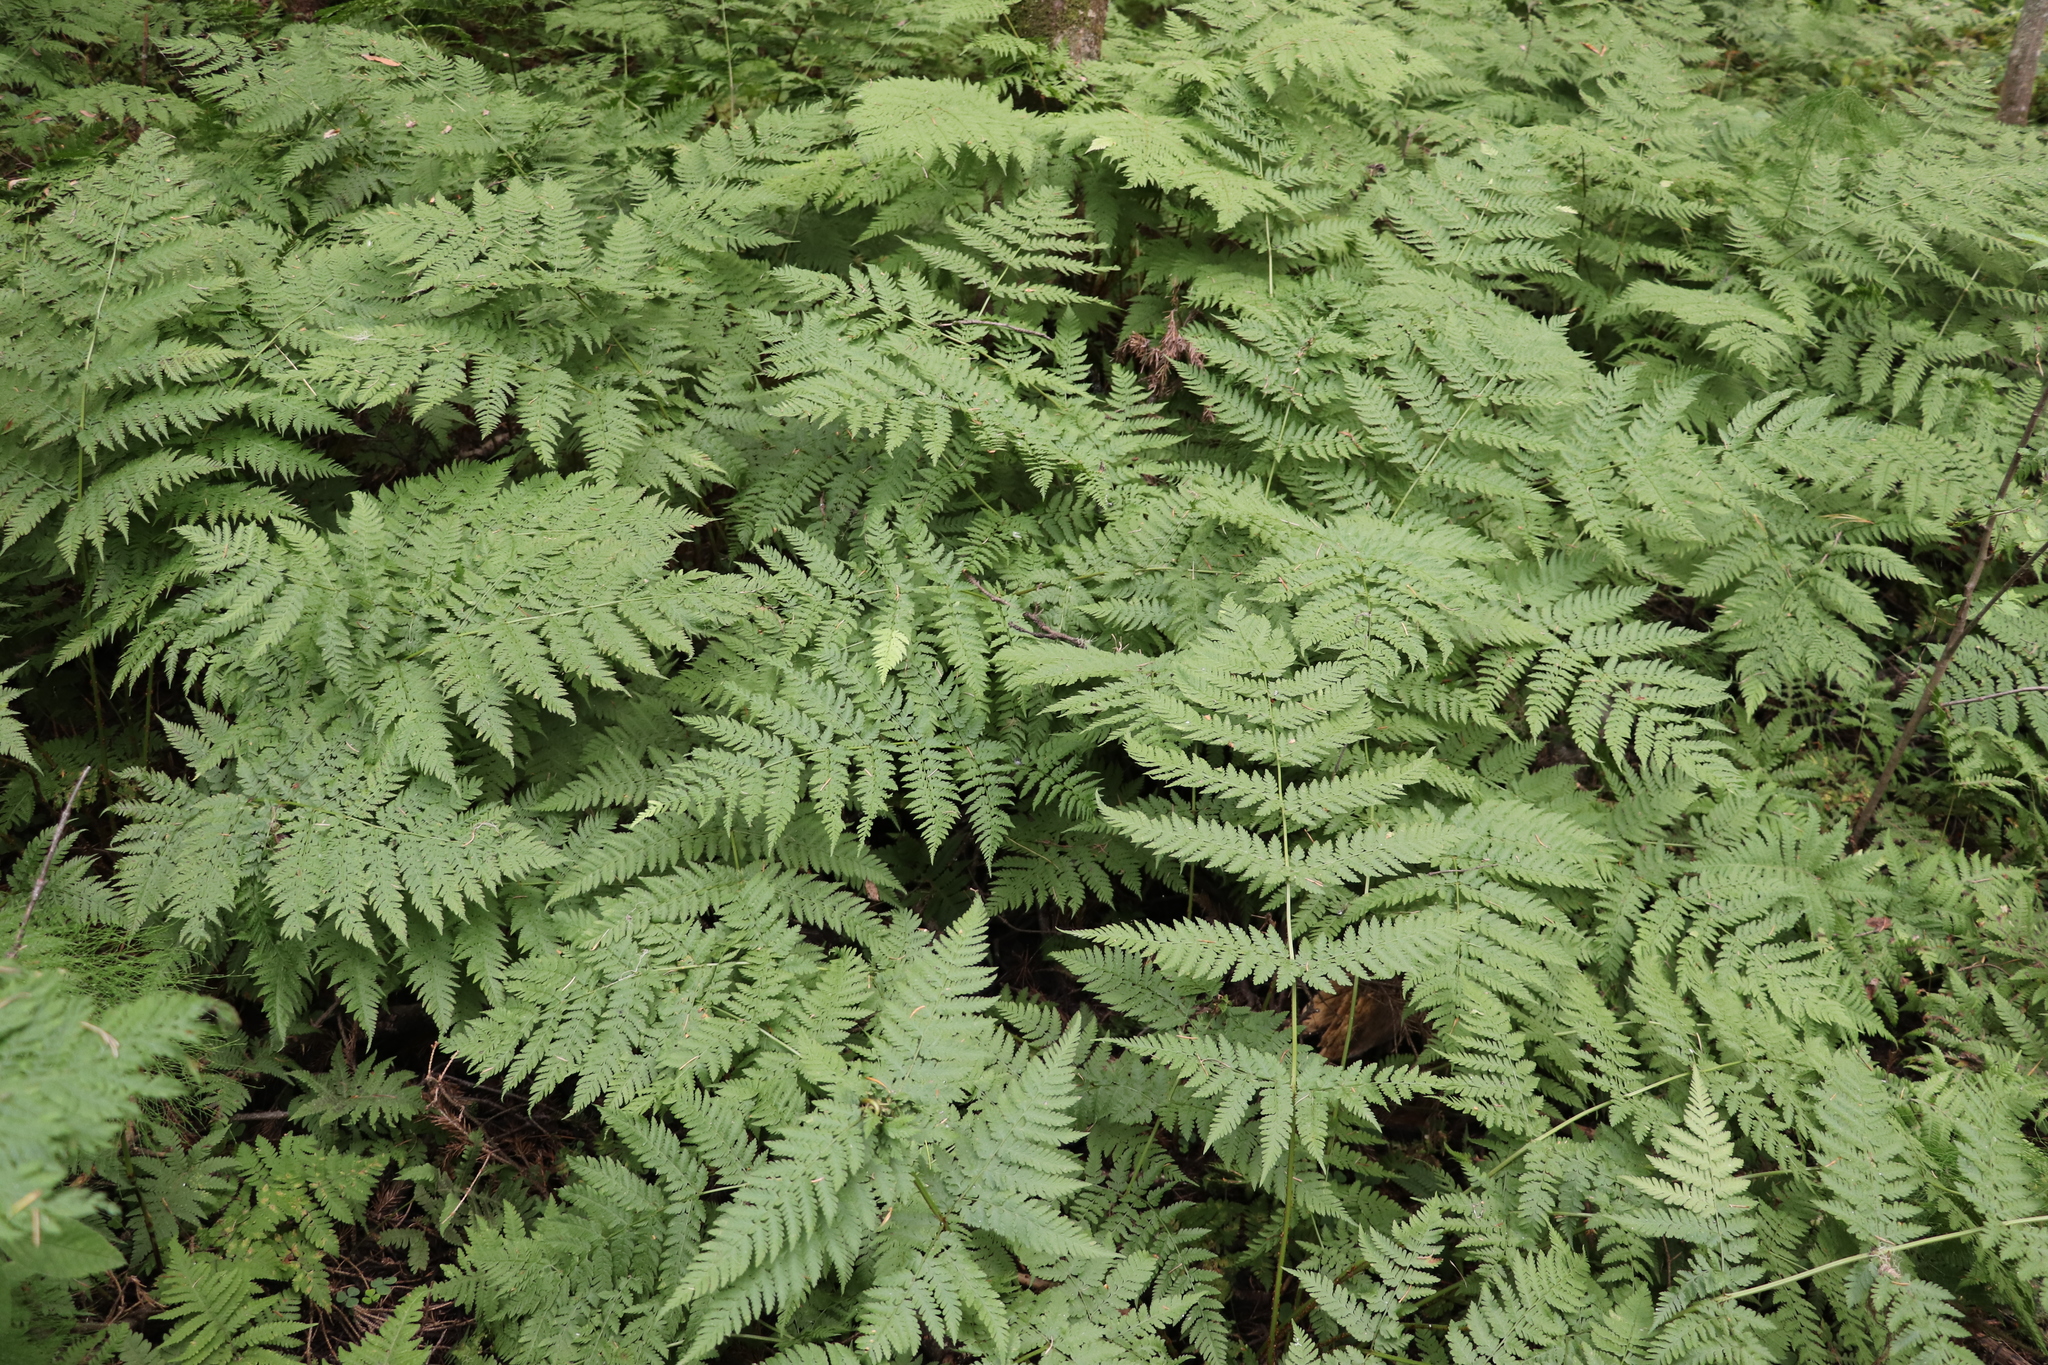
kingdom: Plantae
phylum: Tracheophyta
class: Polypodiopsida
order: Polypodiales
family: Dryopteridaceae
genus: Dryopteris
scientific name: Dryopteris expansa
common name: Northern buckler fern
